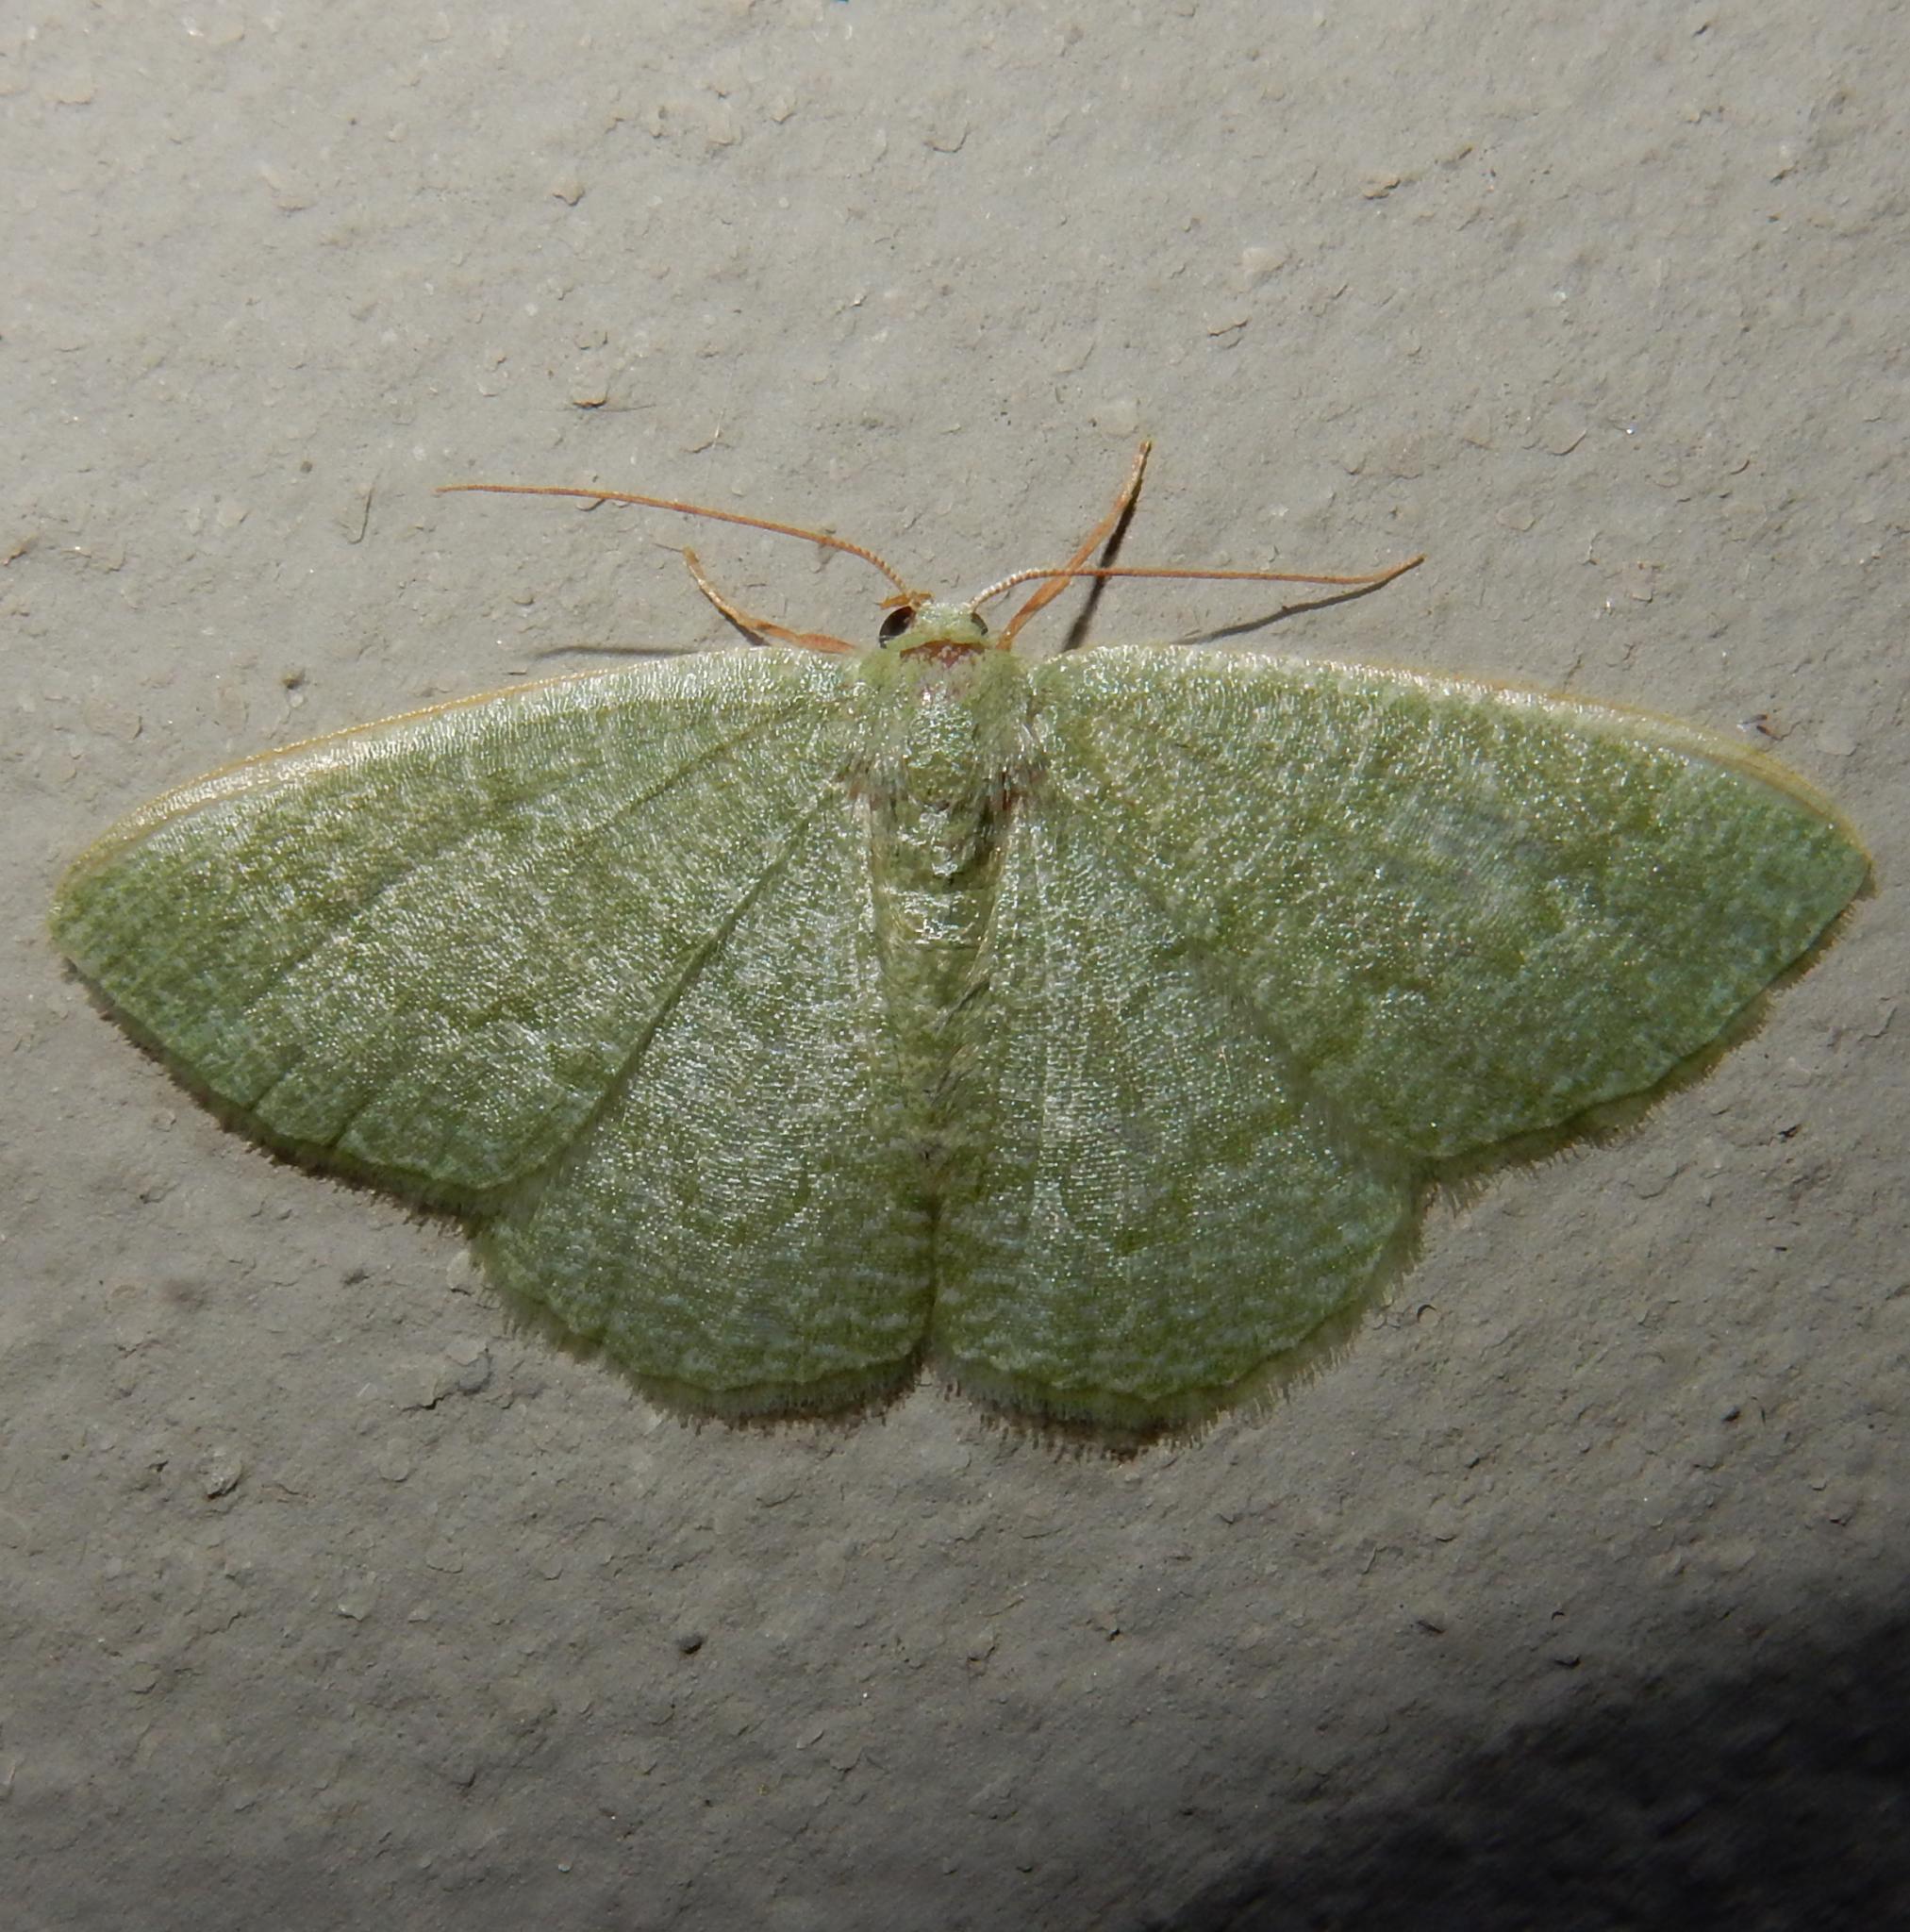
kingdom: Animalia
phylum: Arthropoda
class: Insecta
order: Lepidoptera
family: Geometridae
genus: Chlorissa
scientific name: Chlorissa albistrigulata
